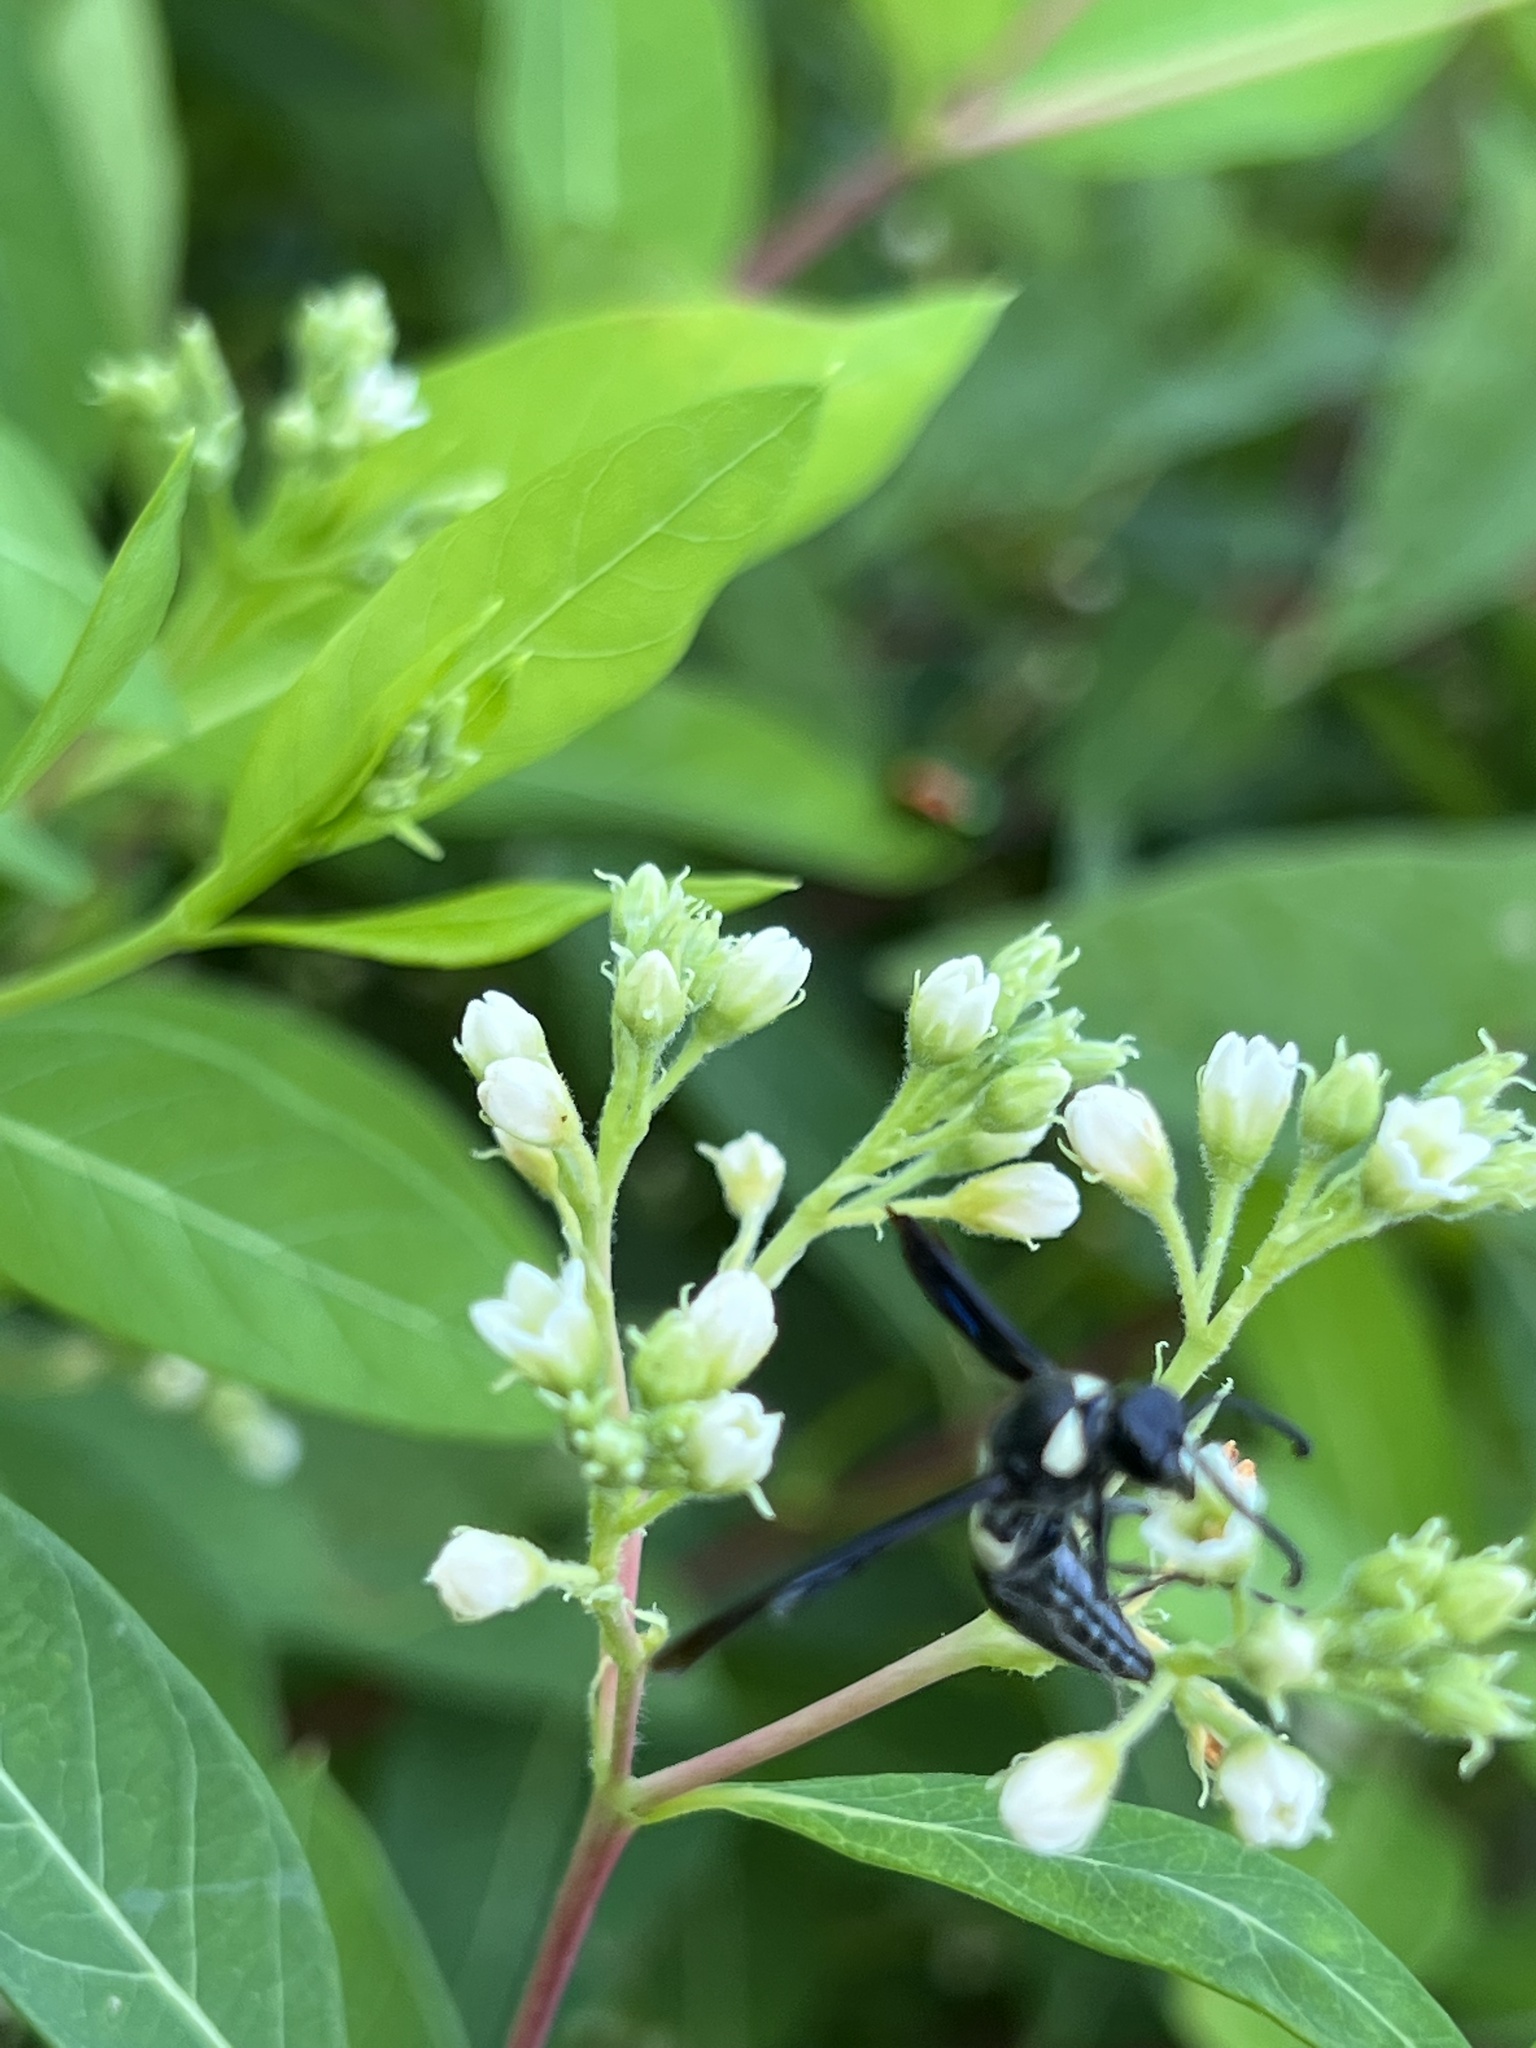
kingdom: Animalia
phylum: Arthropoda
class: Insecta
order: Hymenoptera
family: Eumenidae
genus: Monobia
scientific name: Monobia quadridens
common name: Four-toothed mason wasp
